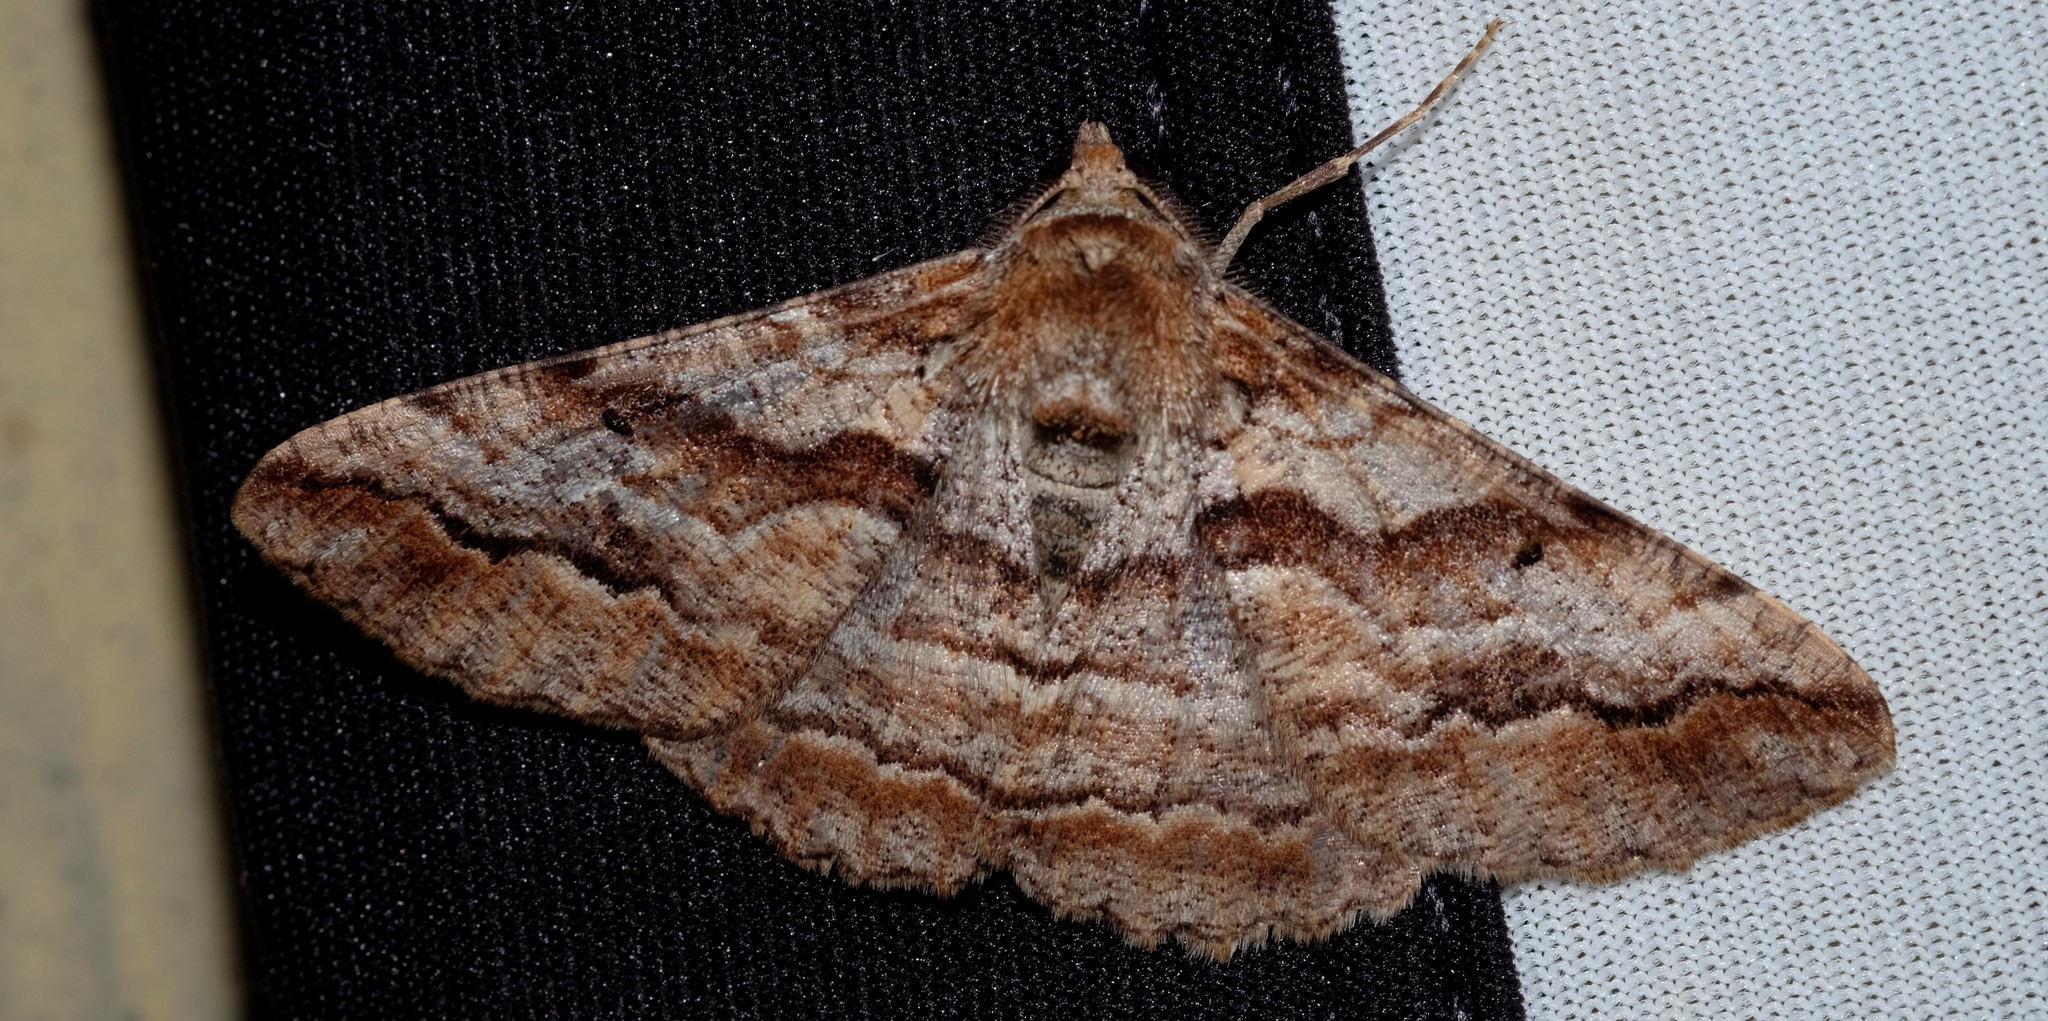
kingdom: Animalia
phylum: Arthropoda
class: Insecta
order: Lepidoptera
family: Geometridae
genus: Gastrinodes
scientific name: Gastrinodes bitaeniaria
